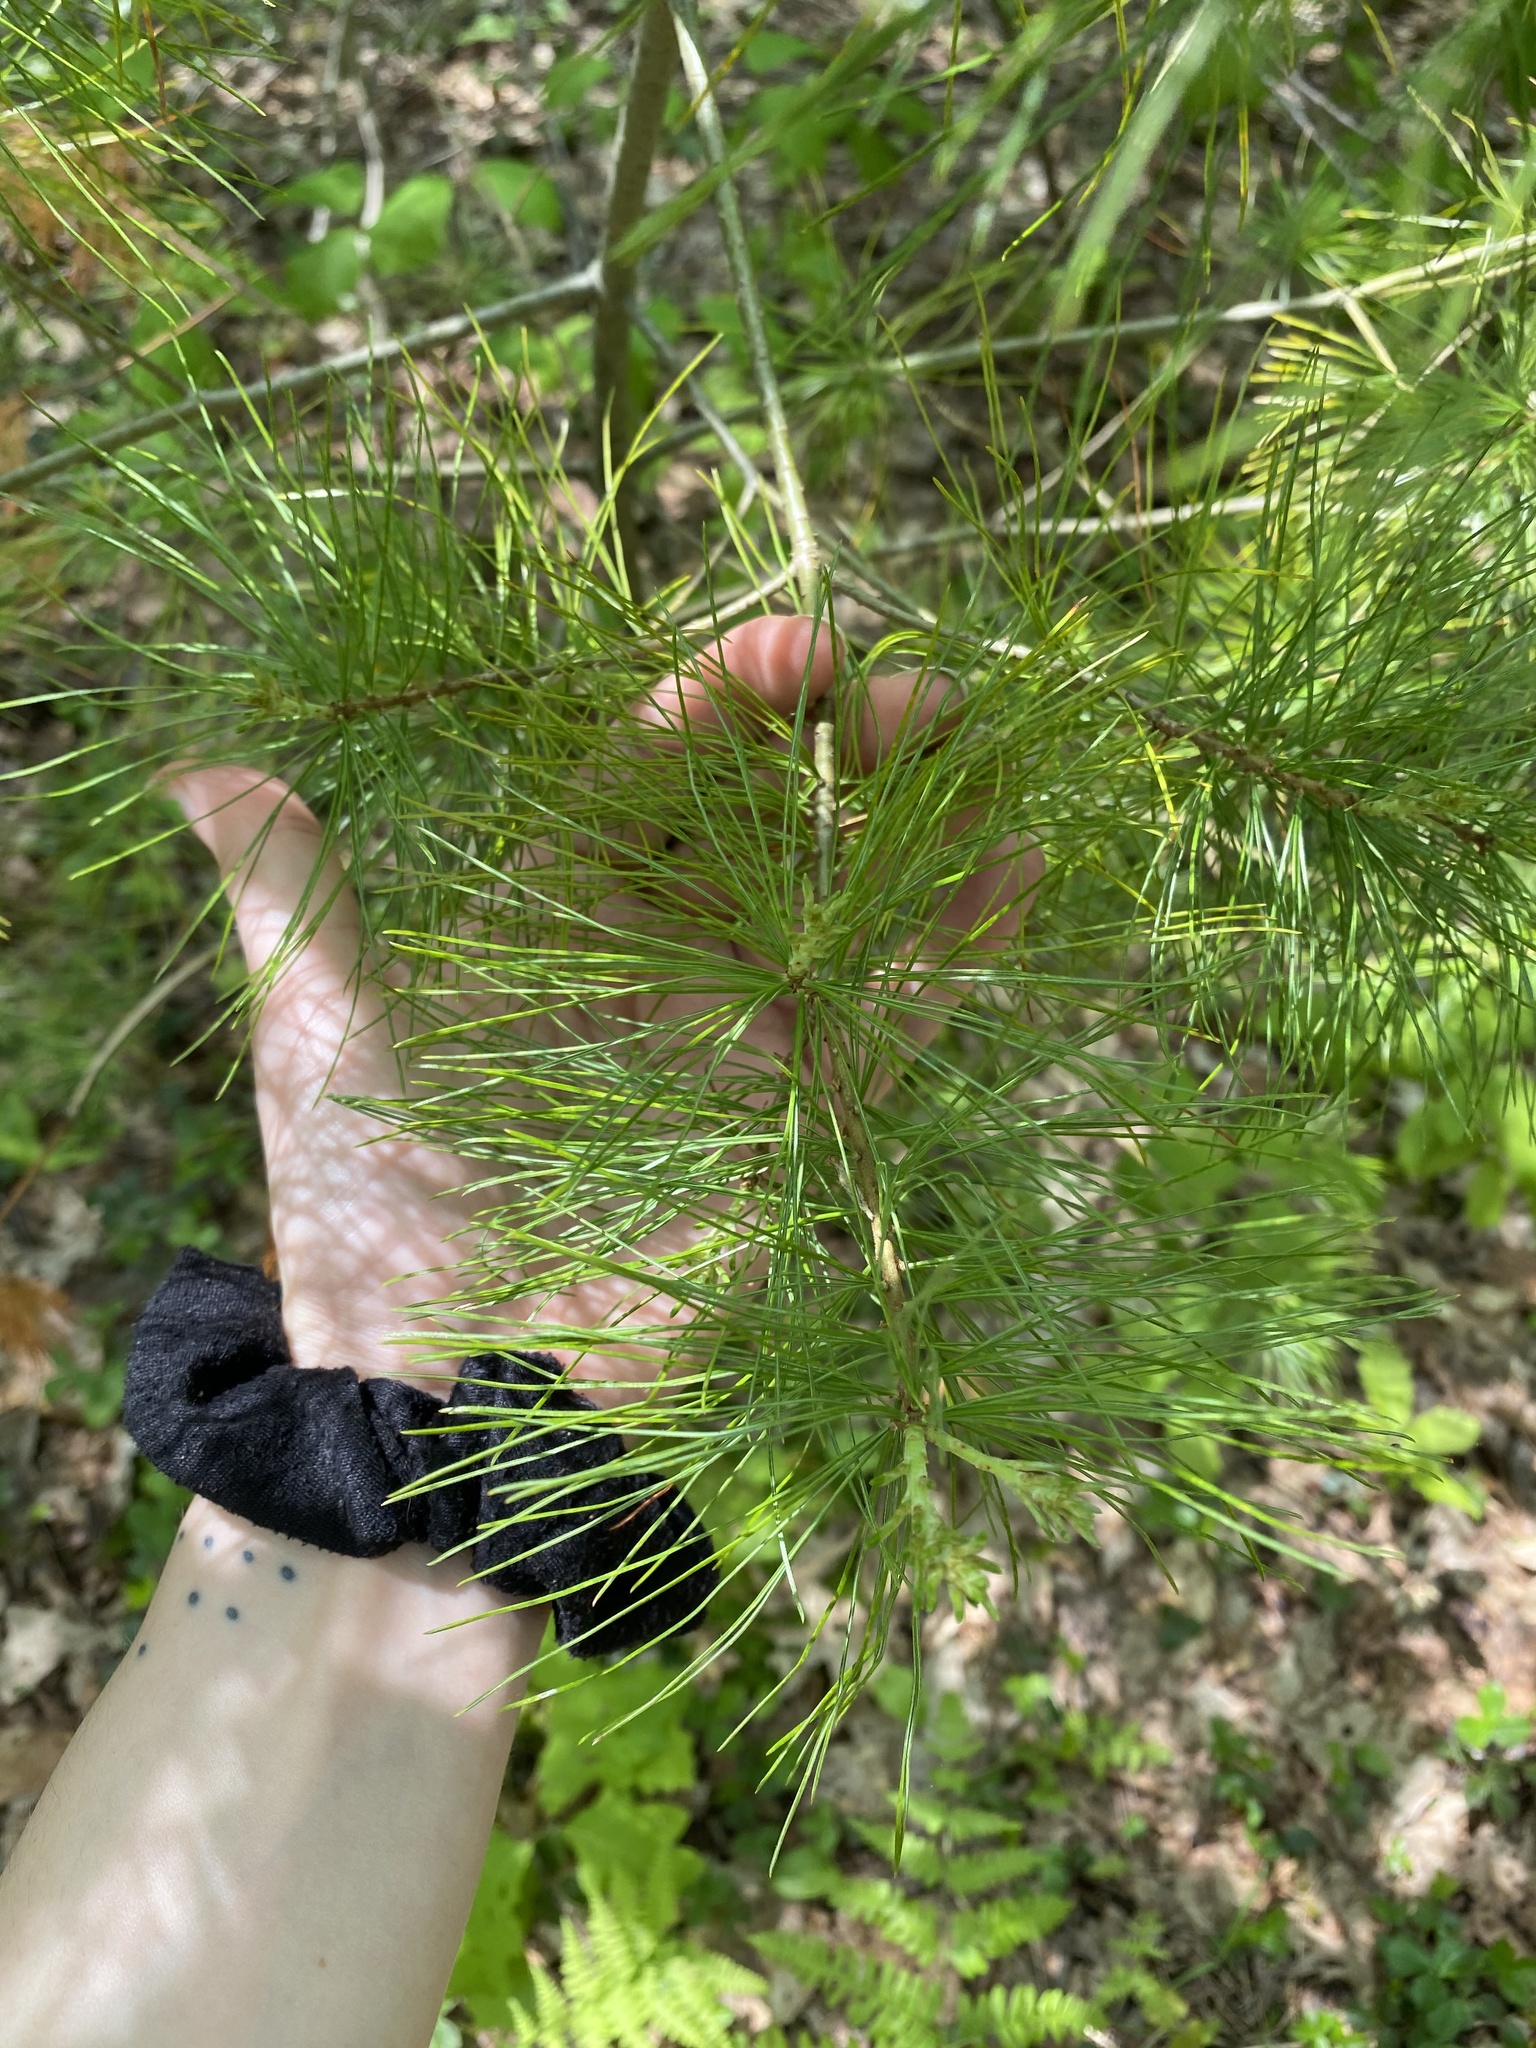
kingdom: Plantae
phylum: Tracheophyta
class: Pinopsida
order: Pinales
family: Pinaceae
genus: Pinus
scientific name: Pinus strobus
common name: Weymouth pine
